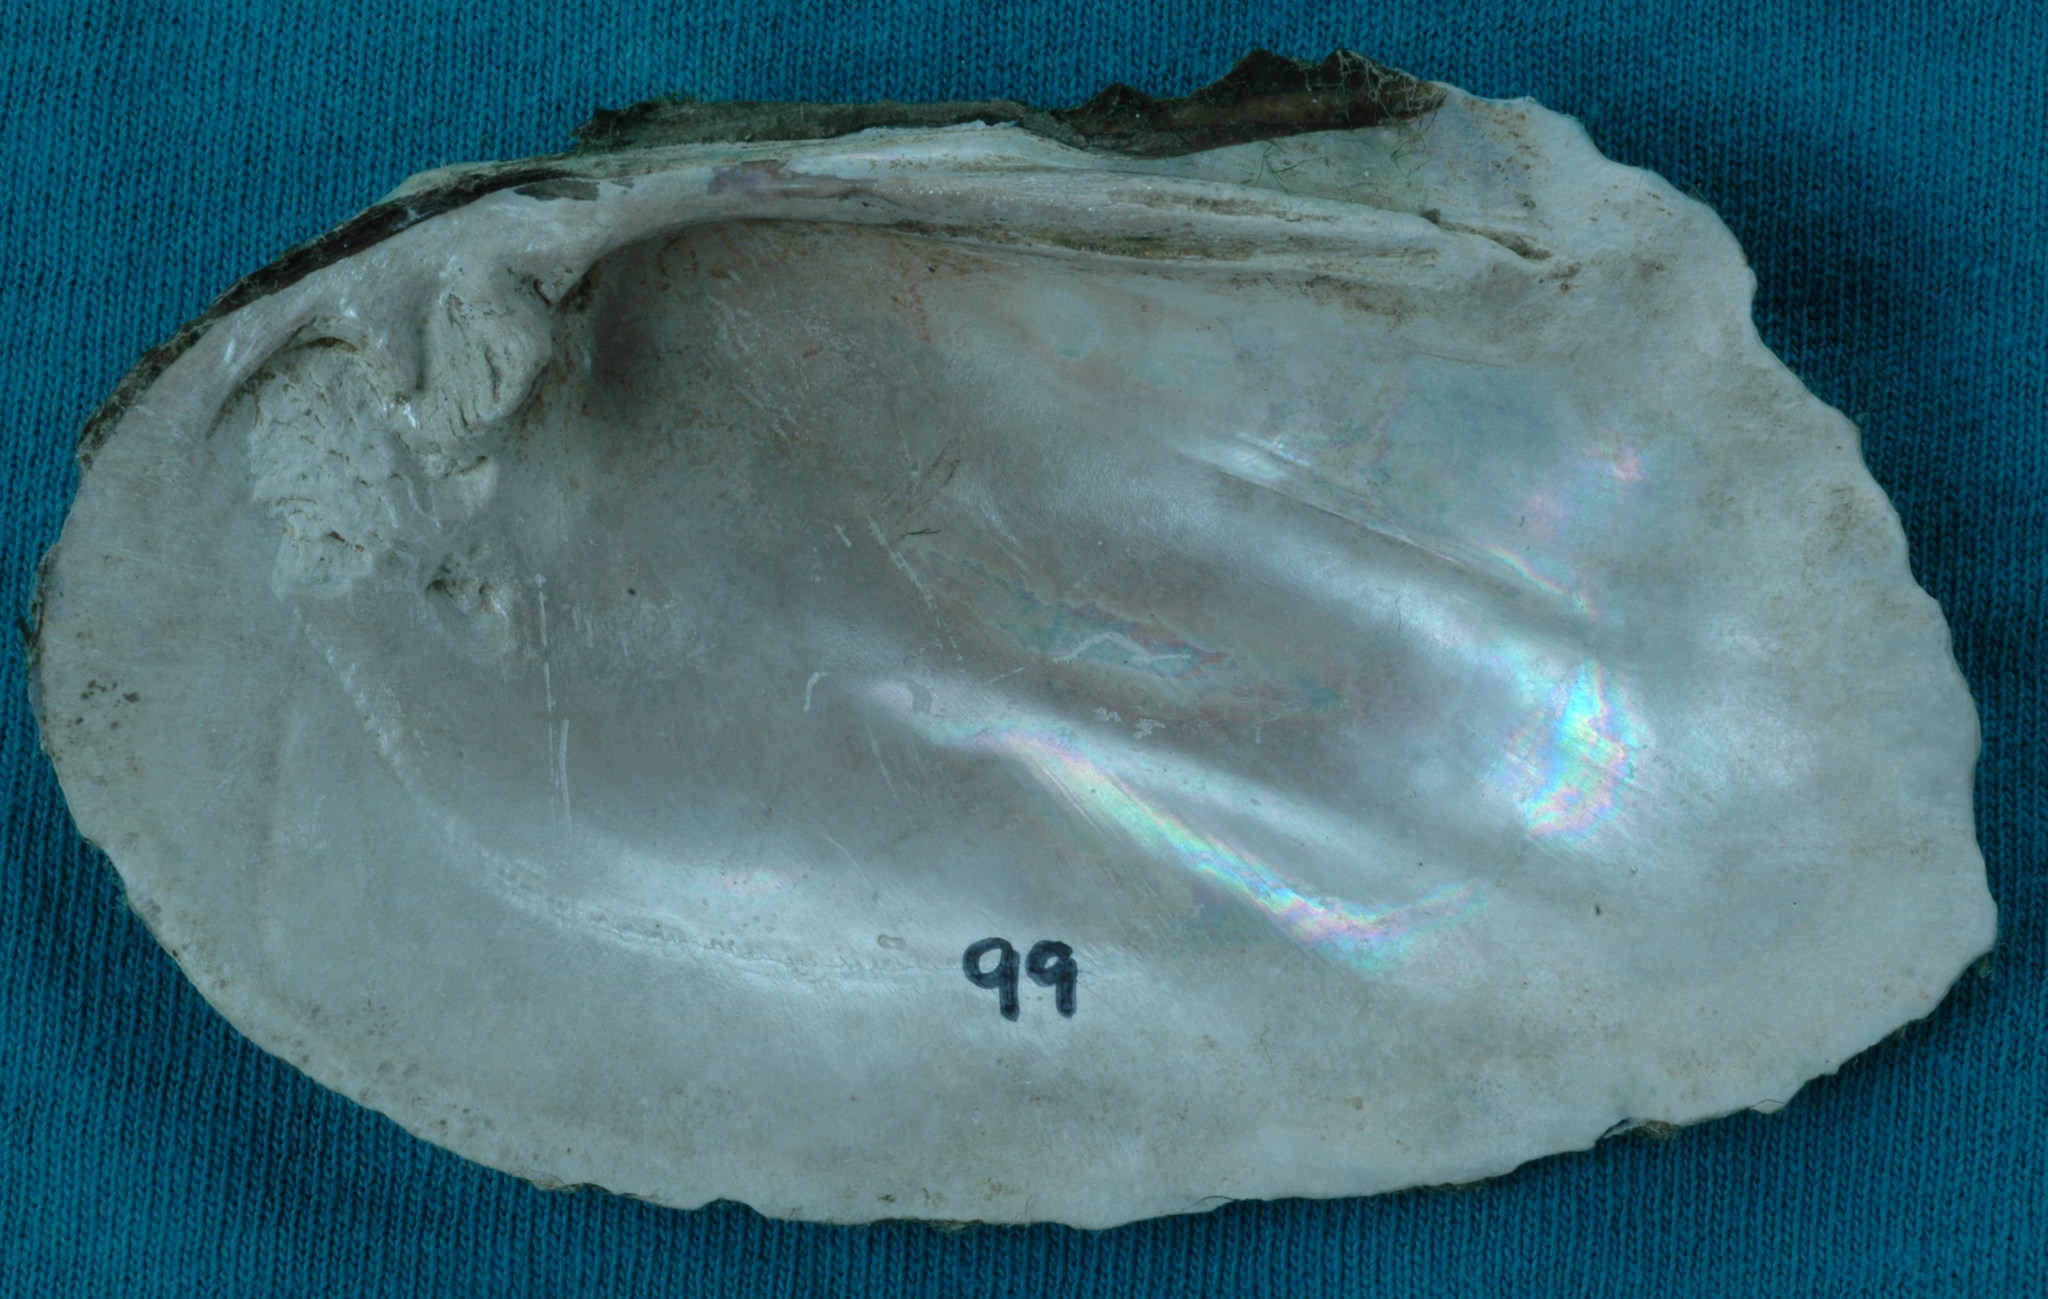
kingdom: Animalia
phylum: Mollusca
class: Bivalvia
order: Unionida
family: Unionidae
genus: Plectomerus
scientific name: Plectomerus dombeyanus
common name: Bankclimber
